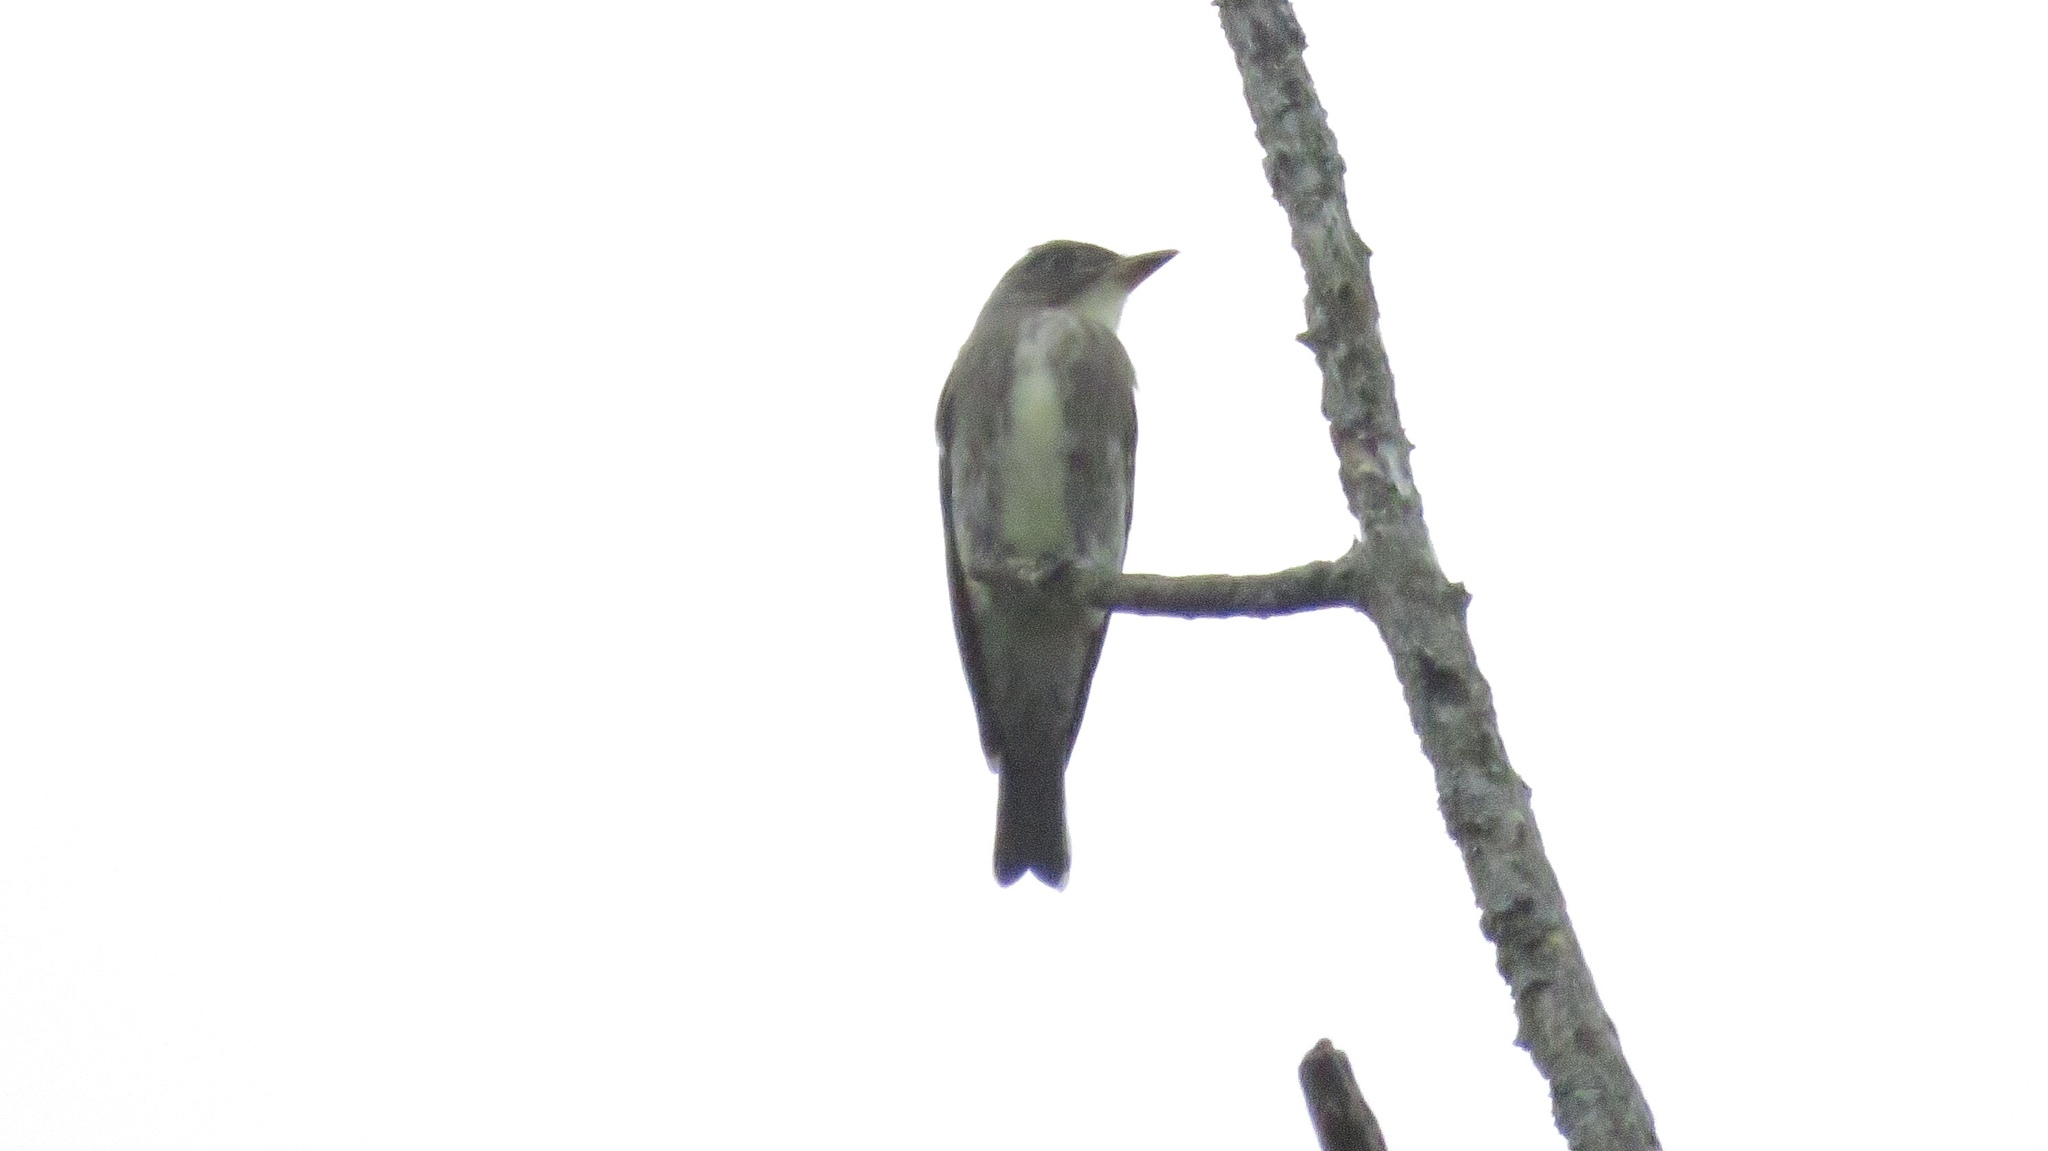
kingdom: Animalia
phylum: Chordata
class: Aves
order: Passeriformes
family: Tyrannidae
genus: Contopus
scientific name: Contopus cooperi
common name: Olive-sided flycatcher
